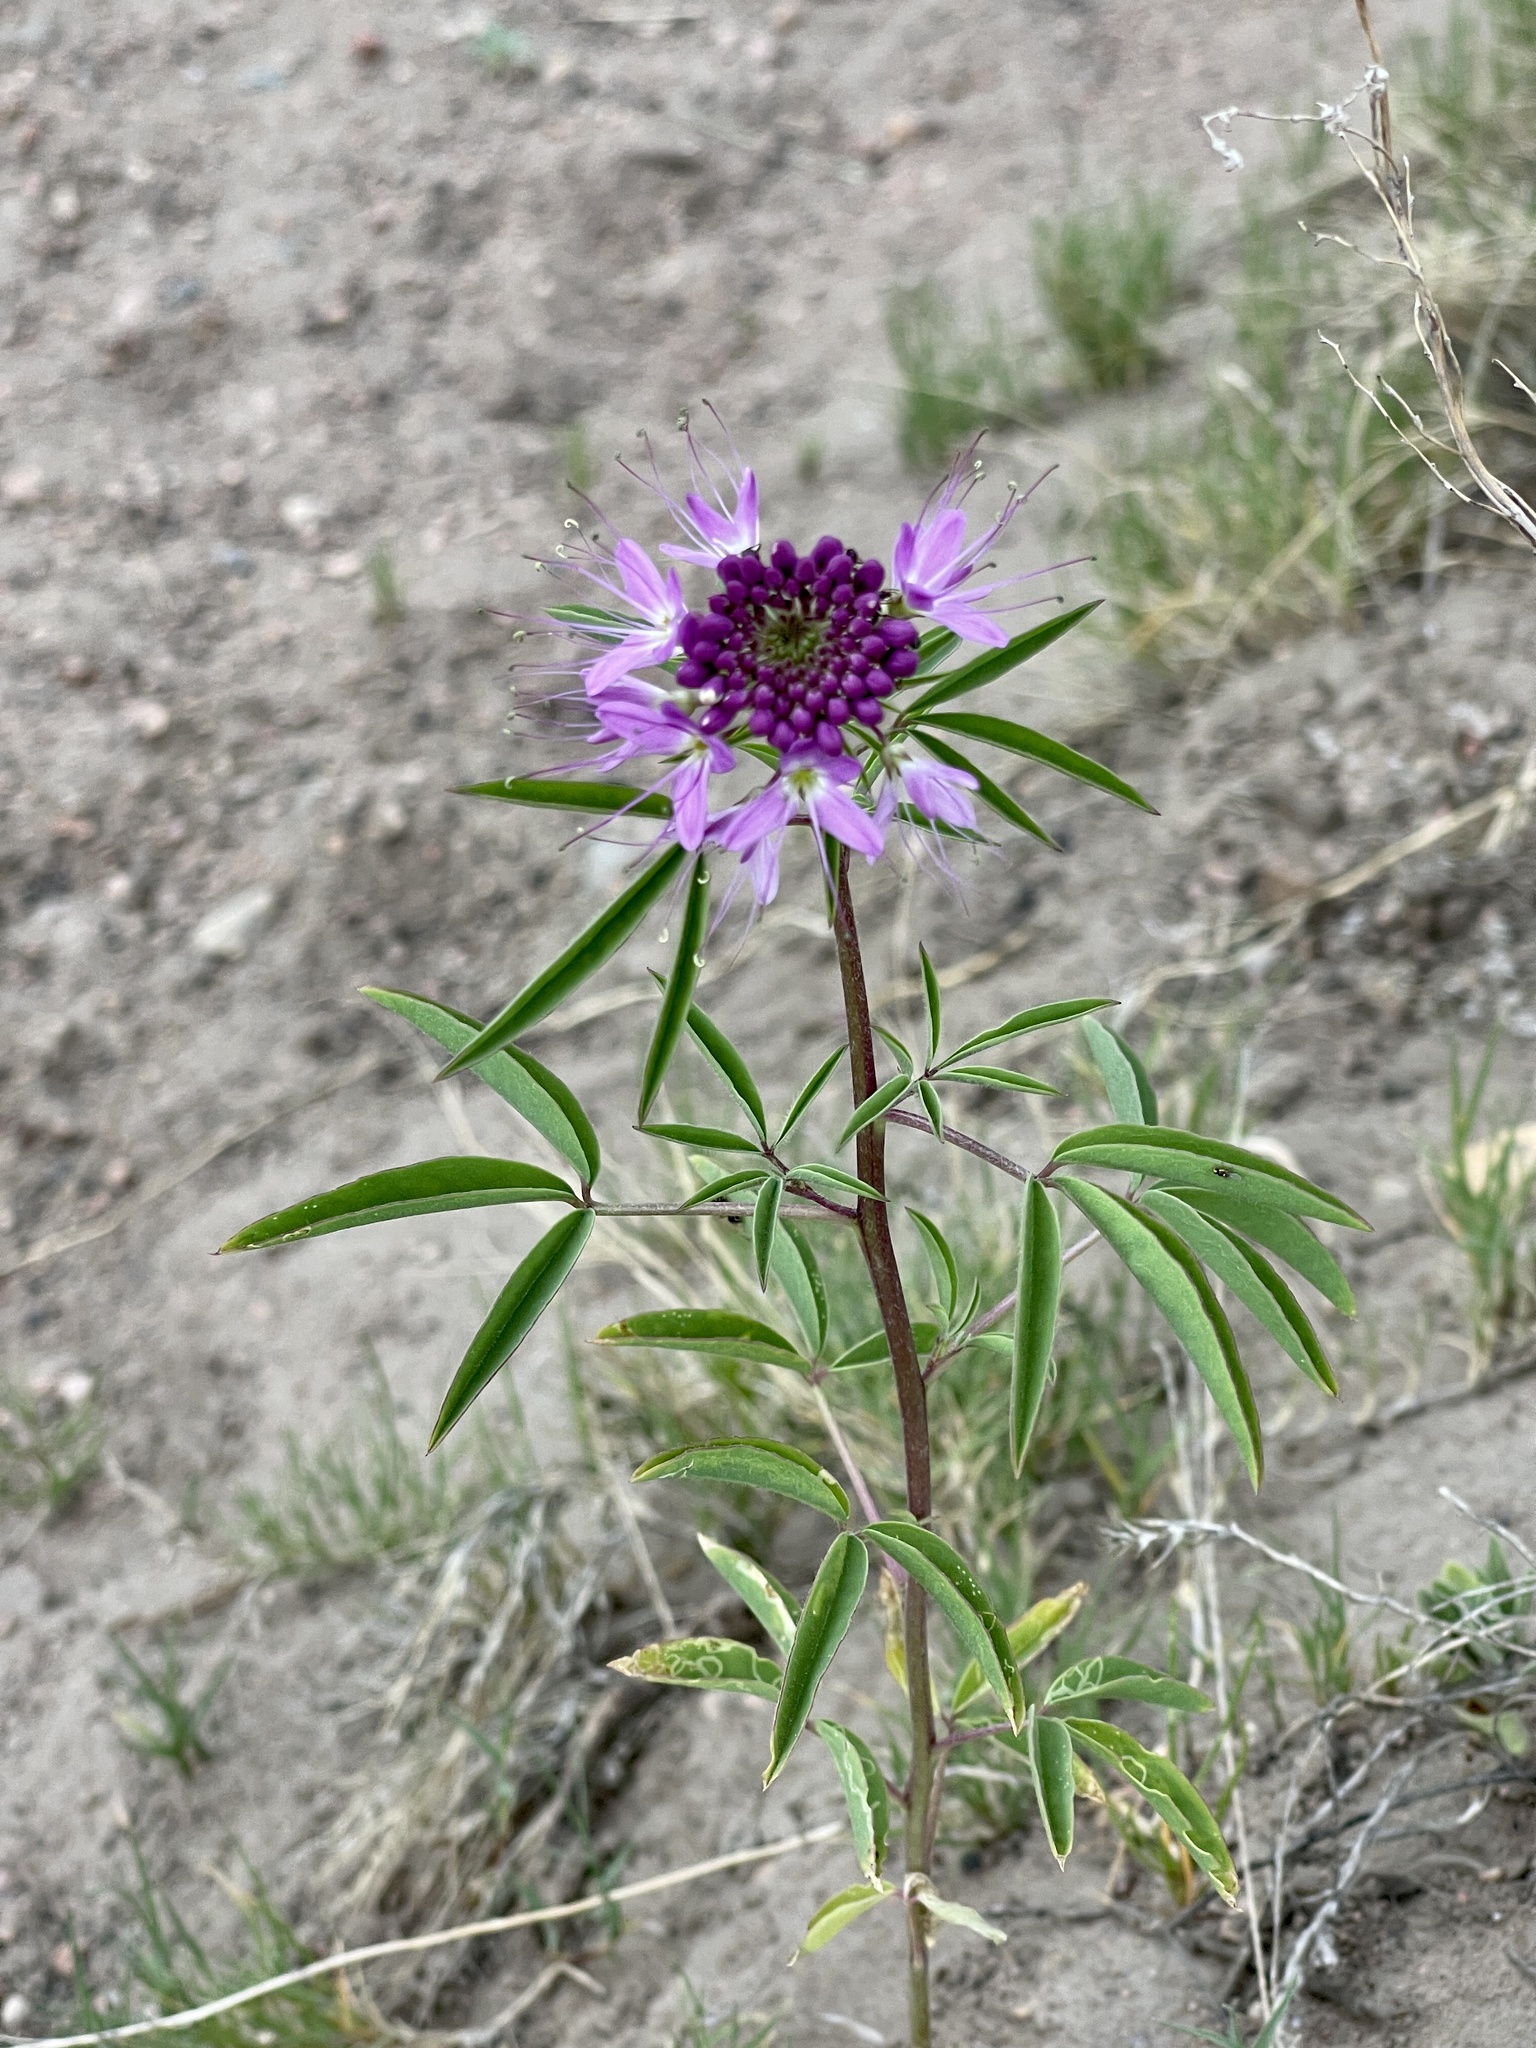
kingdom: Plantae
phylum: Tracheophyta
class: Magnoliopsida
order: Brassicales
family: Cleomaceae
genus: Cleomella
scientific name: Cleomella serrulata
